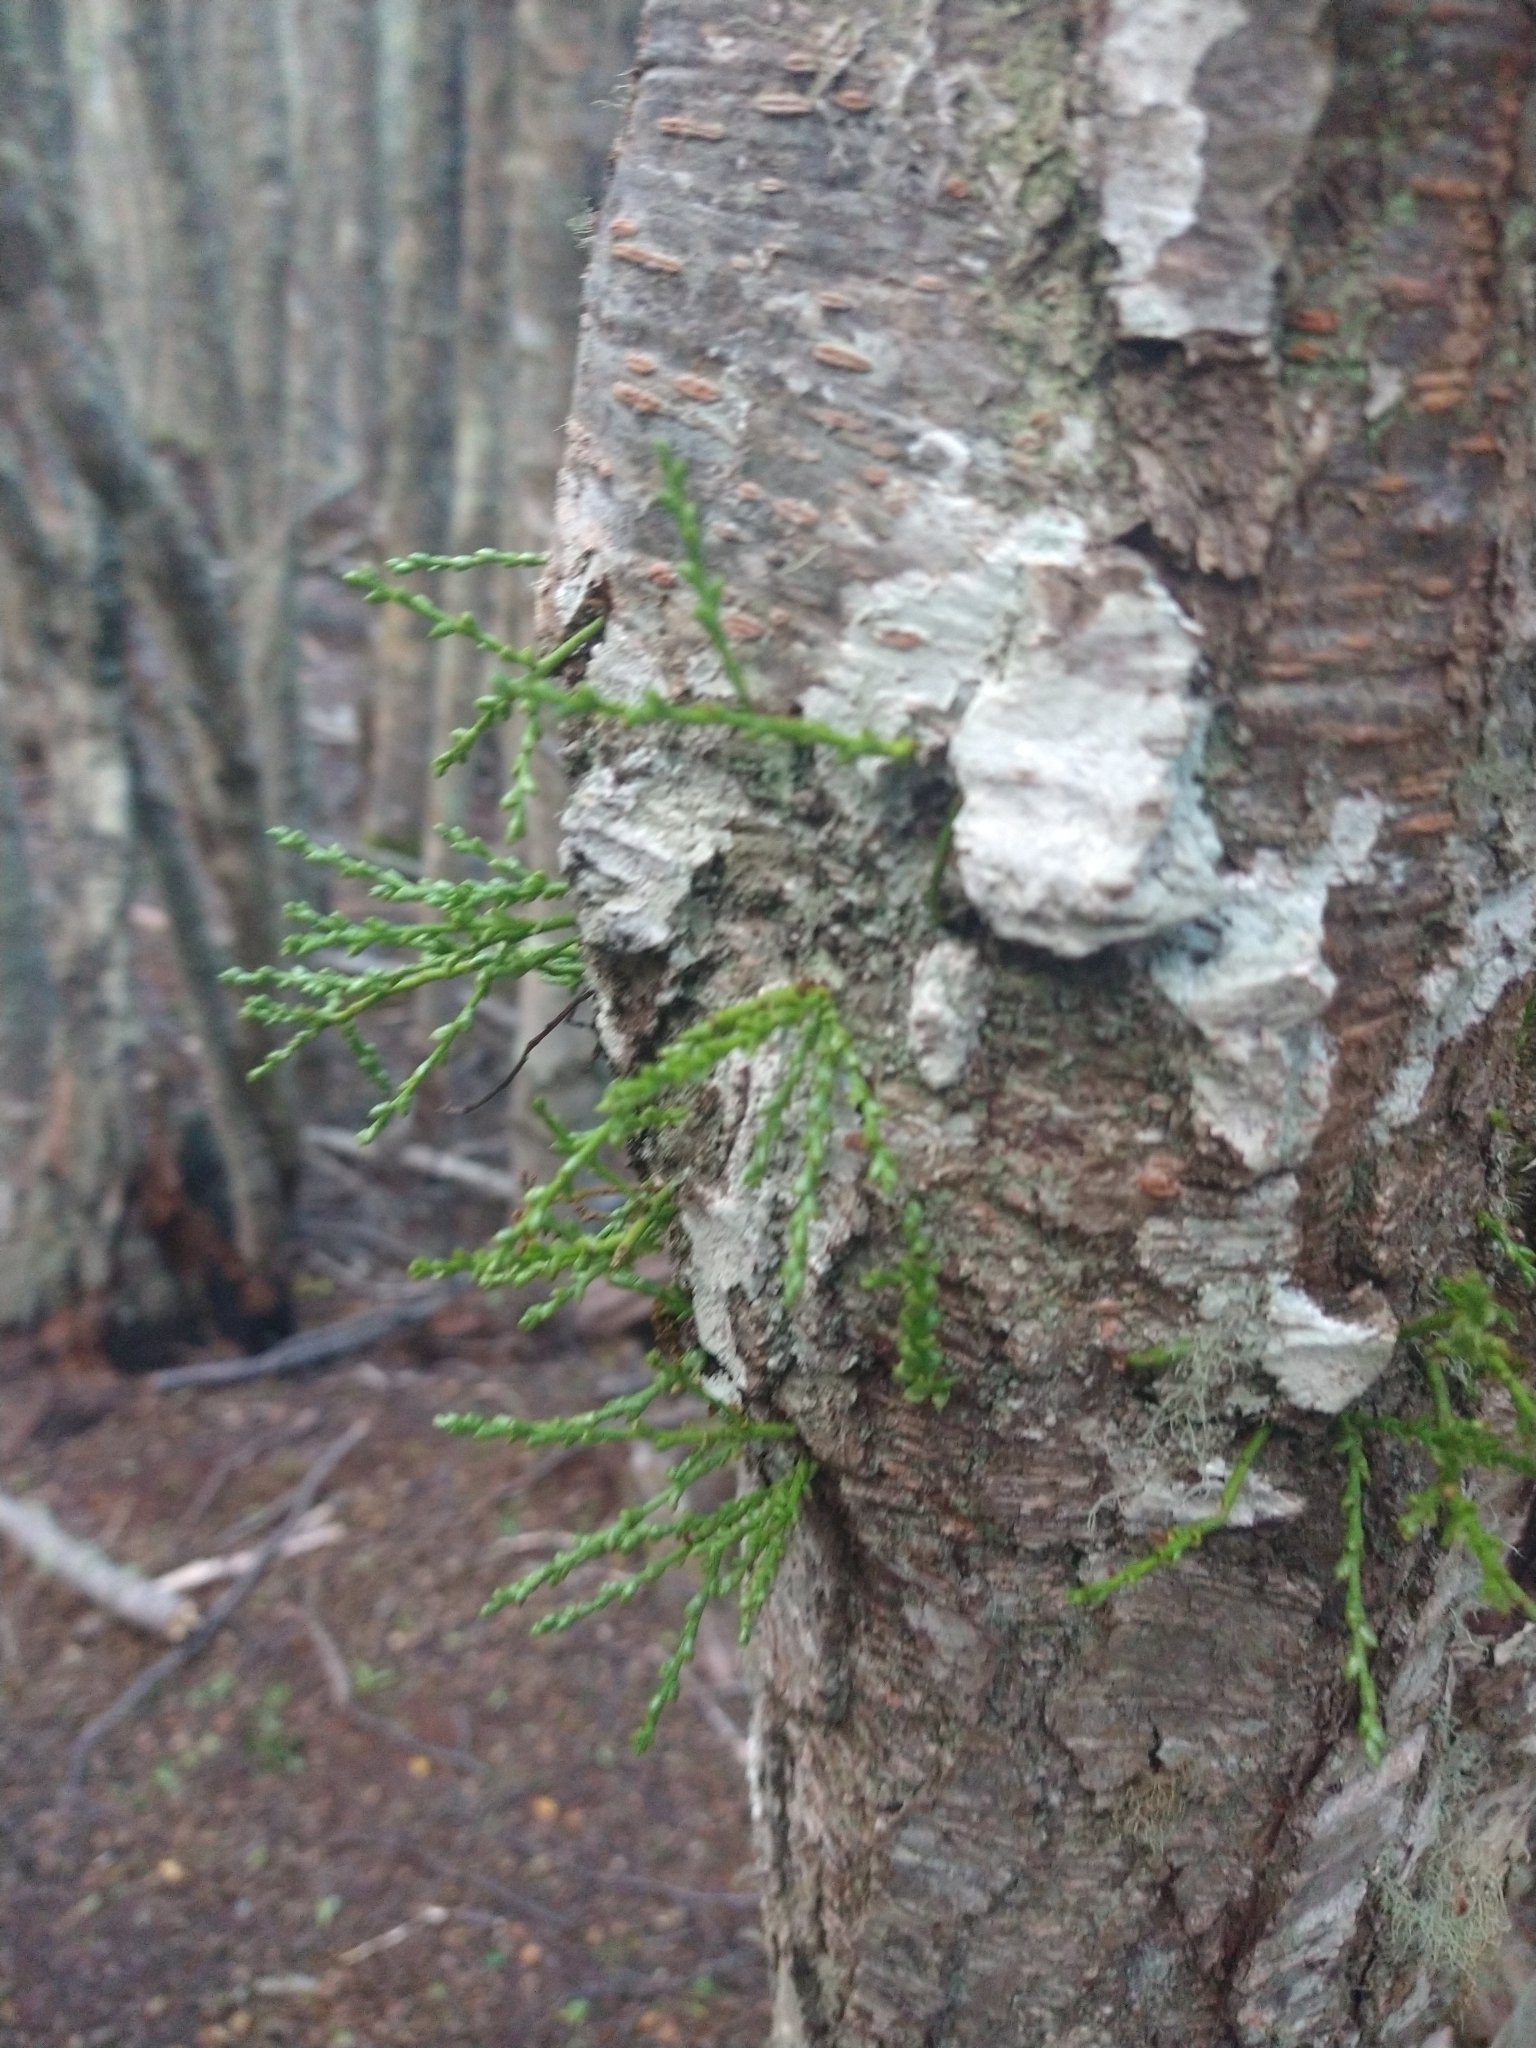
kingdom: Plantae
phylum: Tracheophyta
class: Magnoliopsida
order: Santalales
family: Misodendraceae
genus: Misodendrum
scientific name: Misodendrum punctulatum
